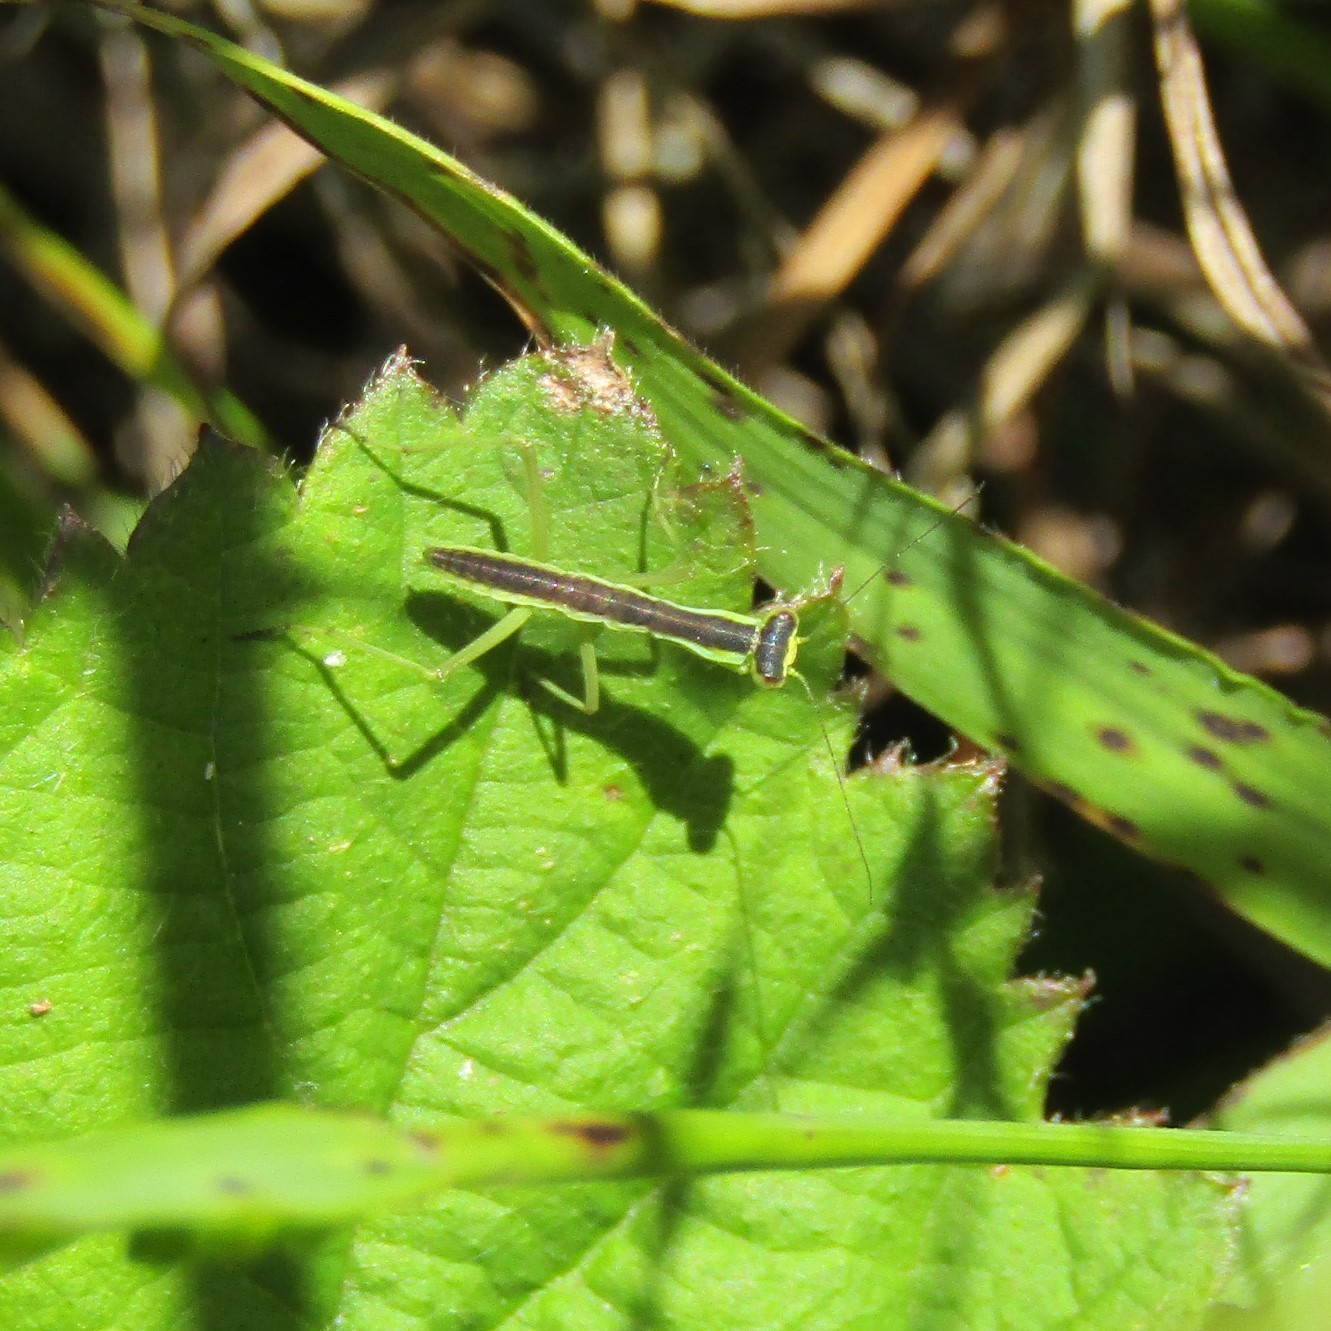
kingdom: Animalia
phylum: Arthropoda
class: Insecta
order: Mantodea
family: Mantidae
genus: Orthodera
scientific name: Orthodera novaezealandiae
